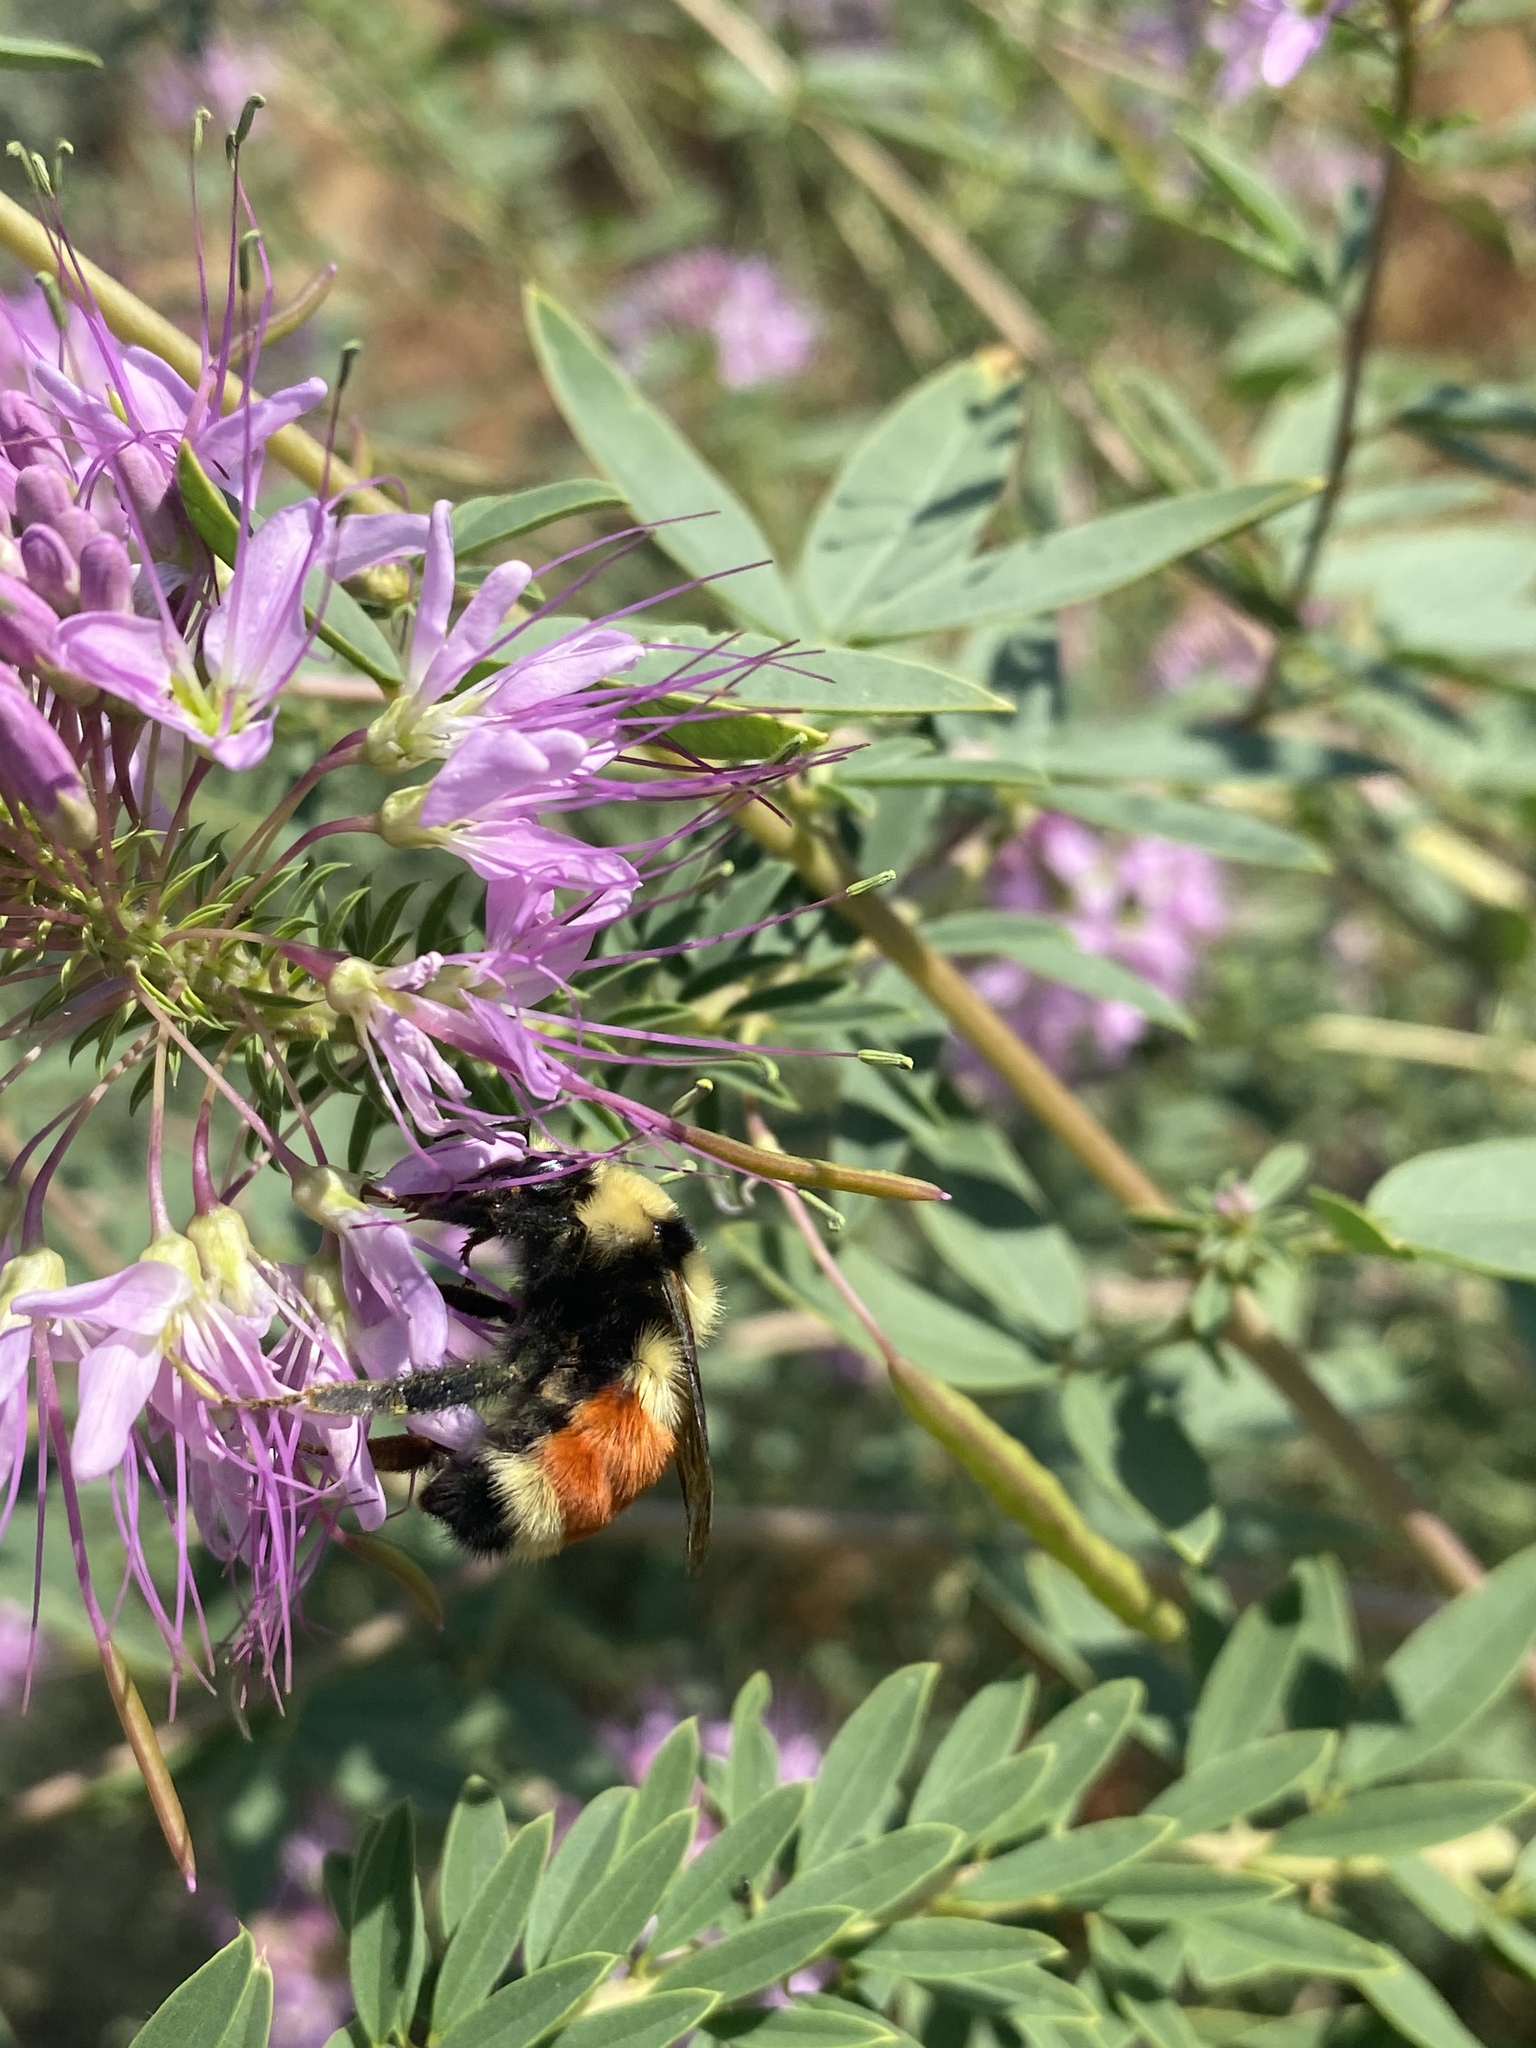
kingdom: Animalia
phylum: Arthropoda
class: Insecta
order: Hymenoptera
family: Apidae
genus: Bombus
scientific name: Bombus huntii
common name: Hunt bumble bee
